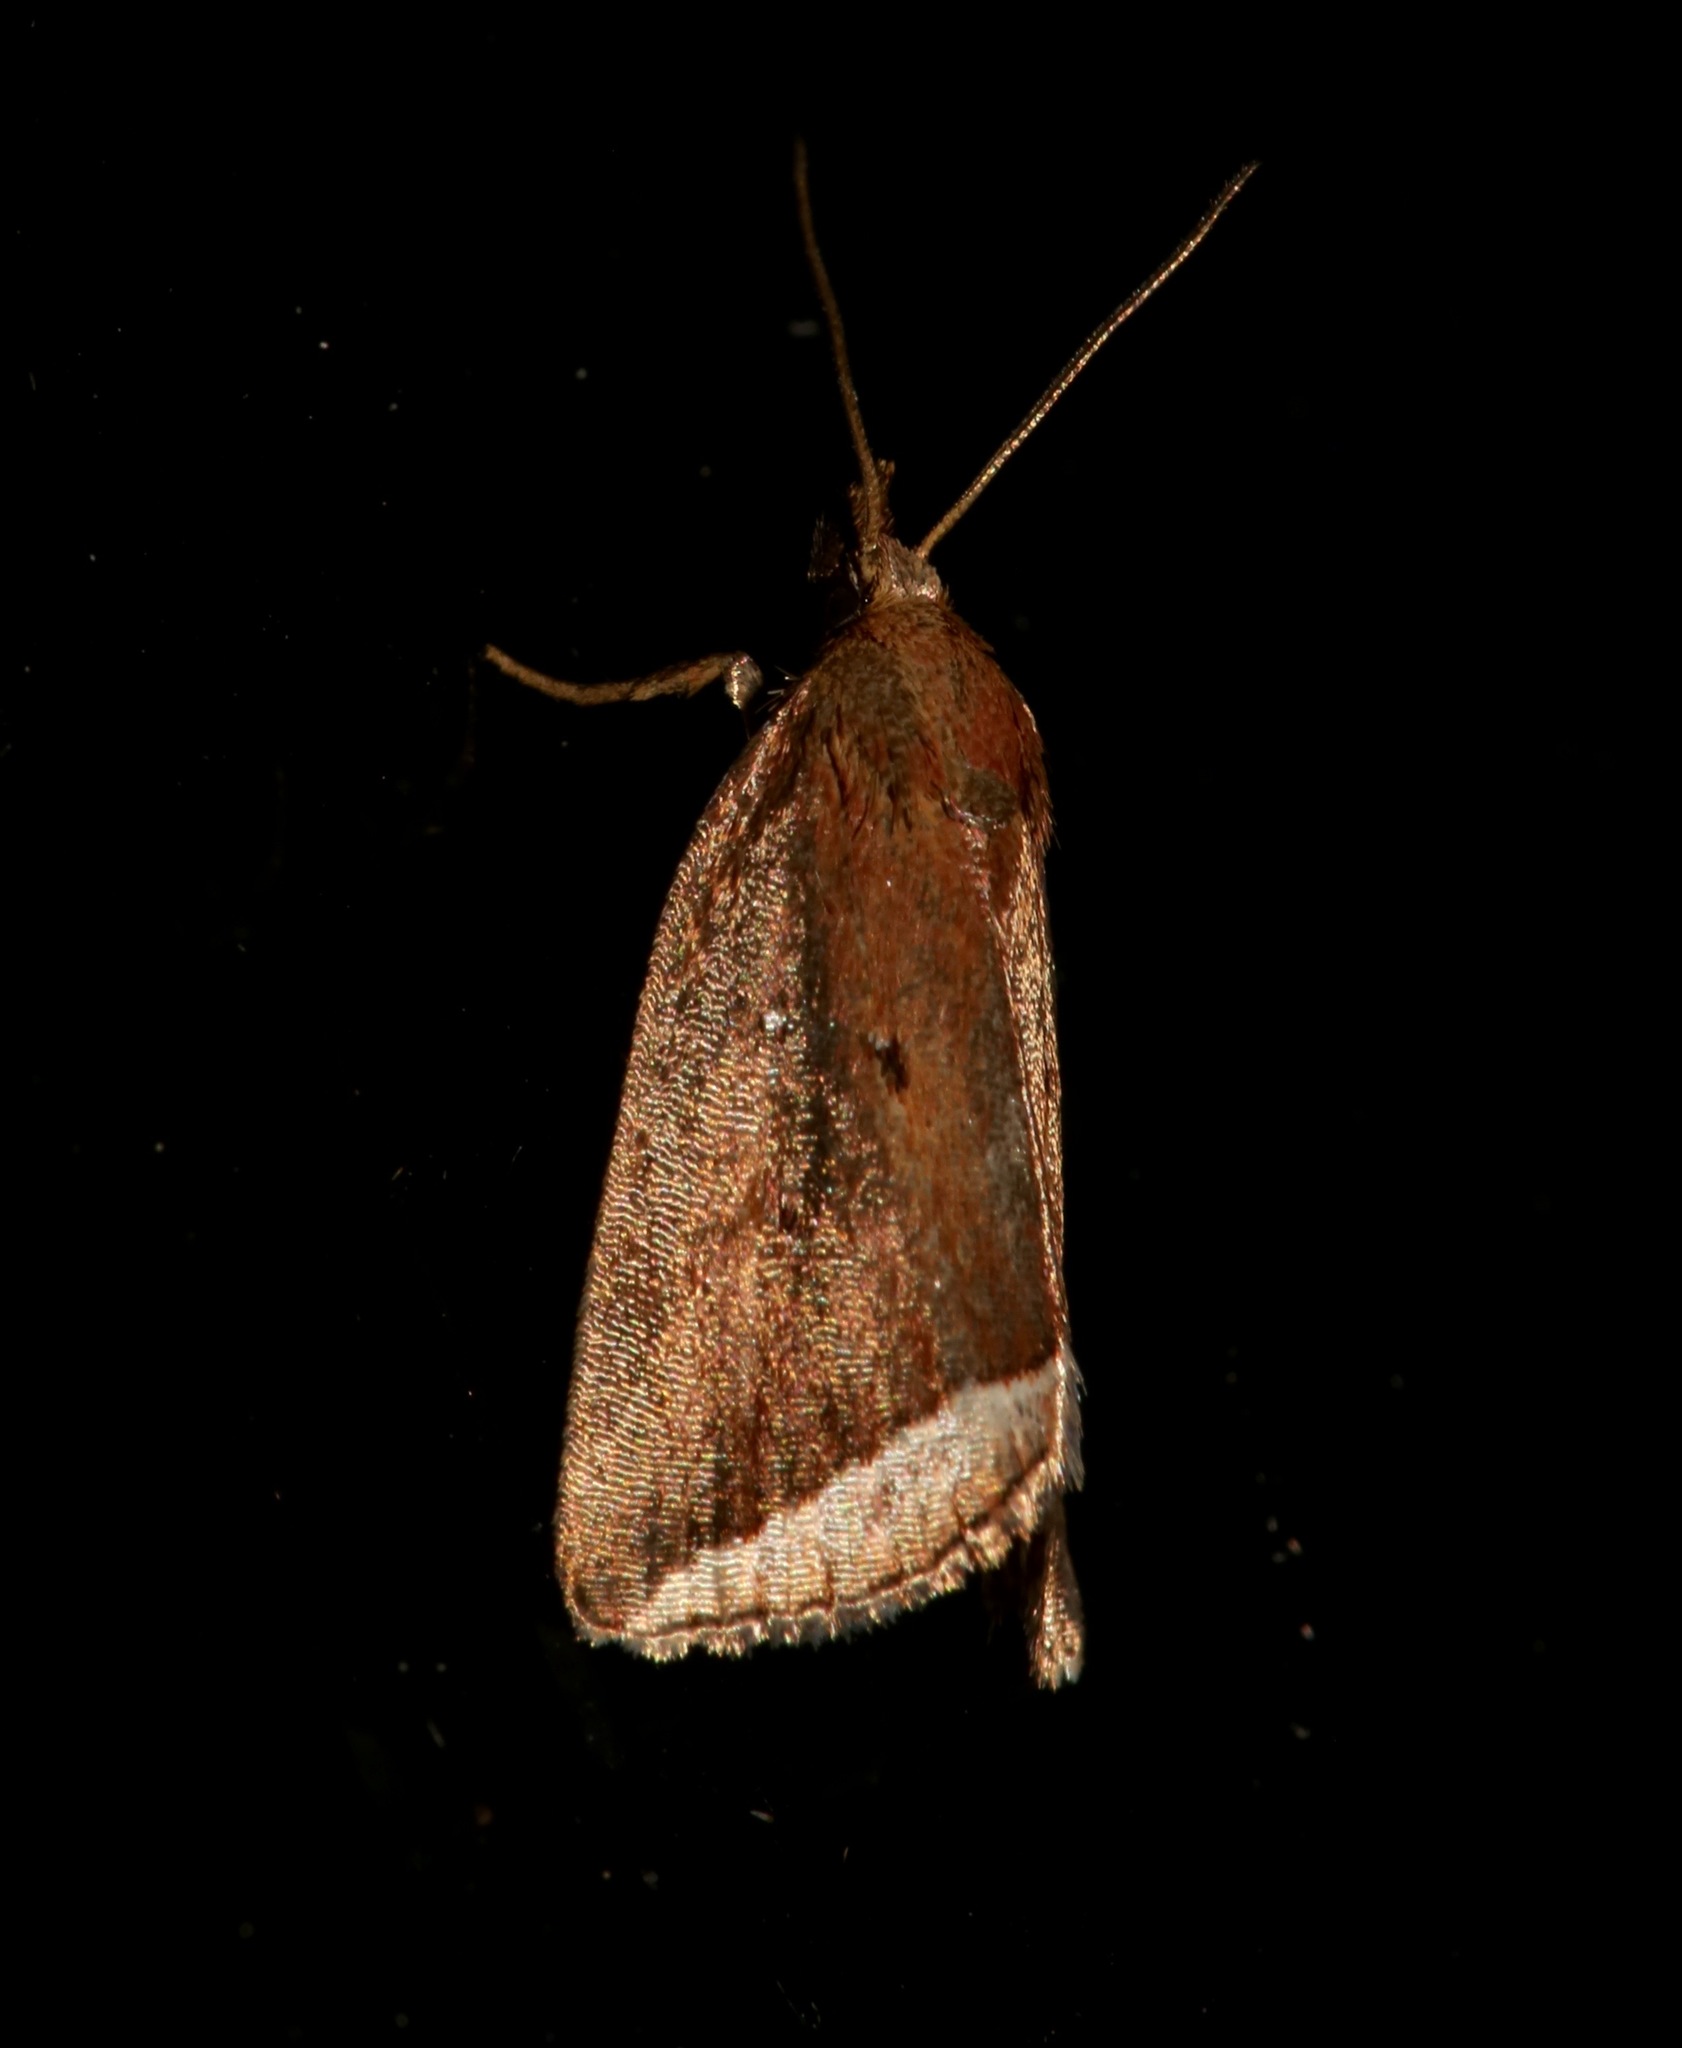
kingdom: Animalia
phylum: Arthropoda
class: Insecta
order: Lepidoptera
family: Erebidae
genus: Capis
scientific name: Capis curvata
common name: Curved halter moth
